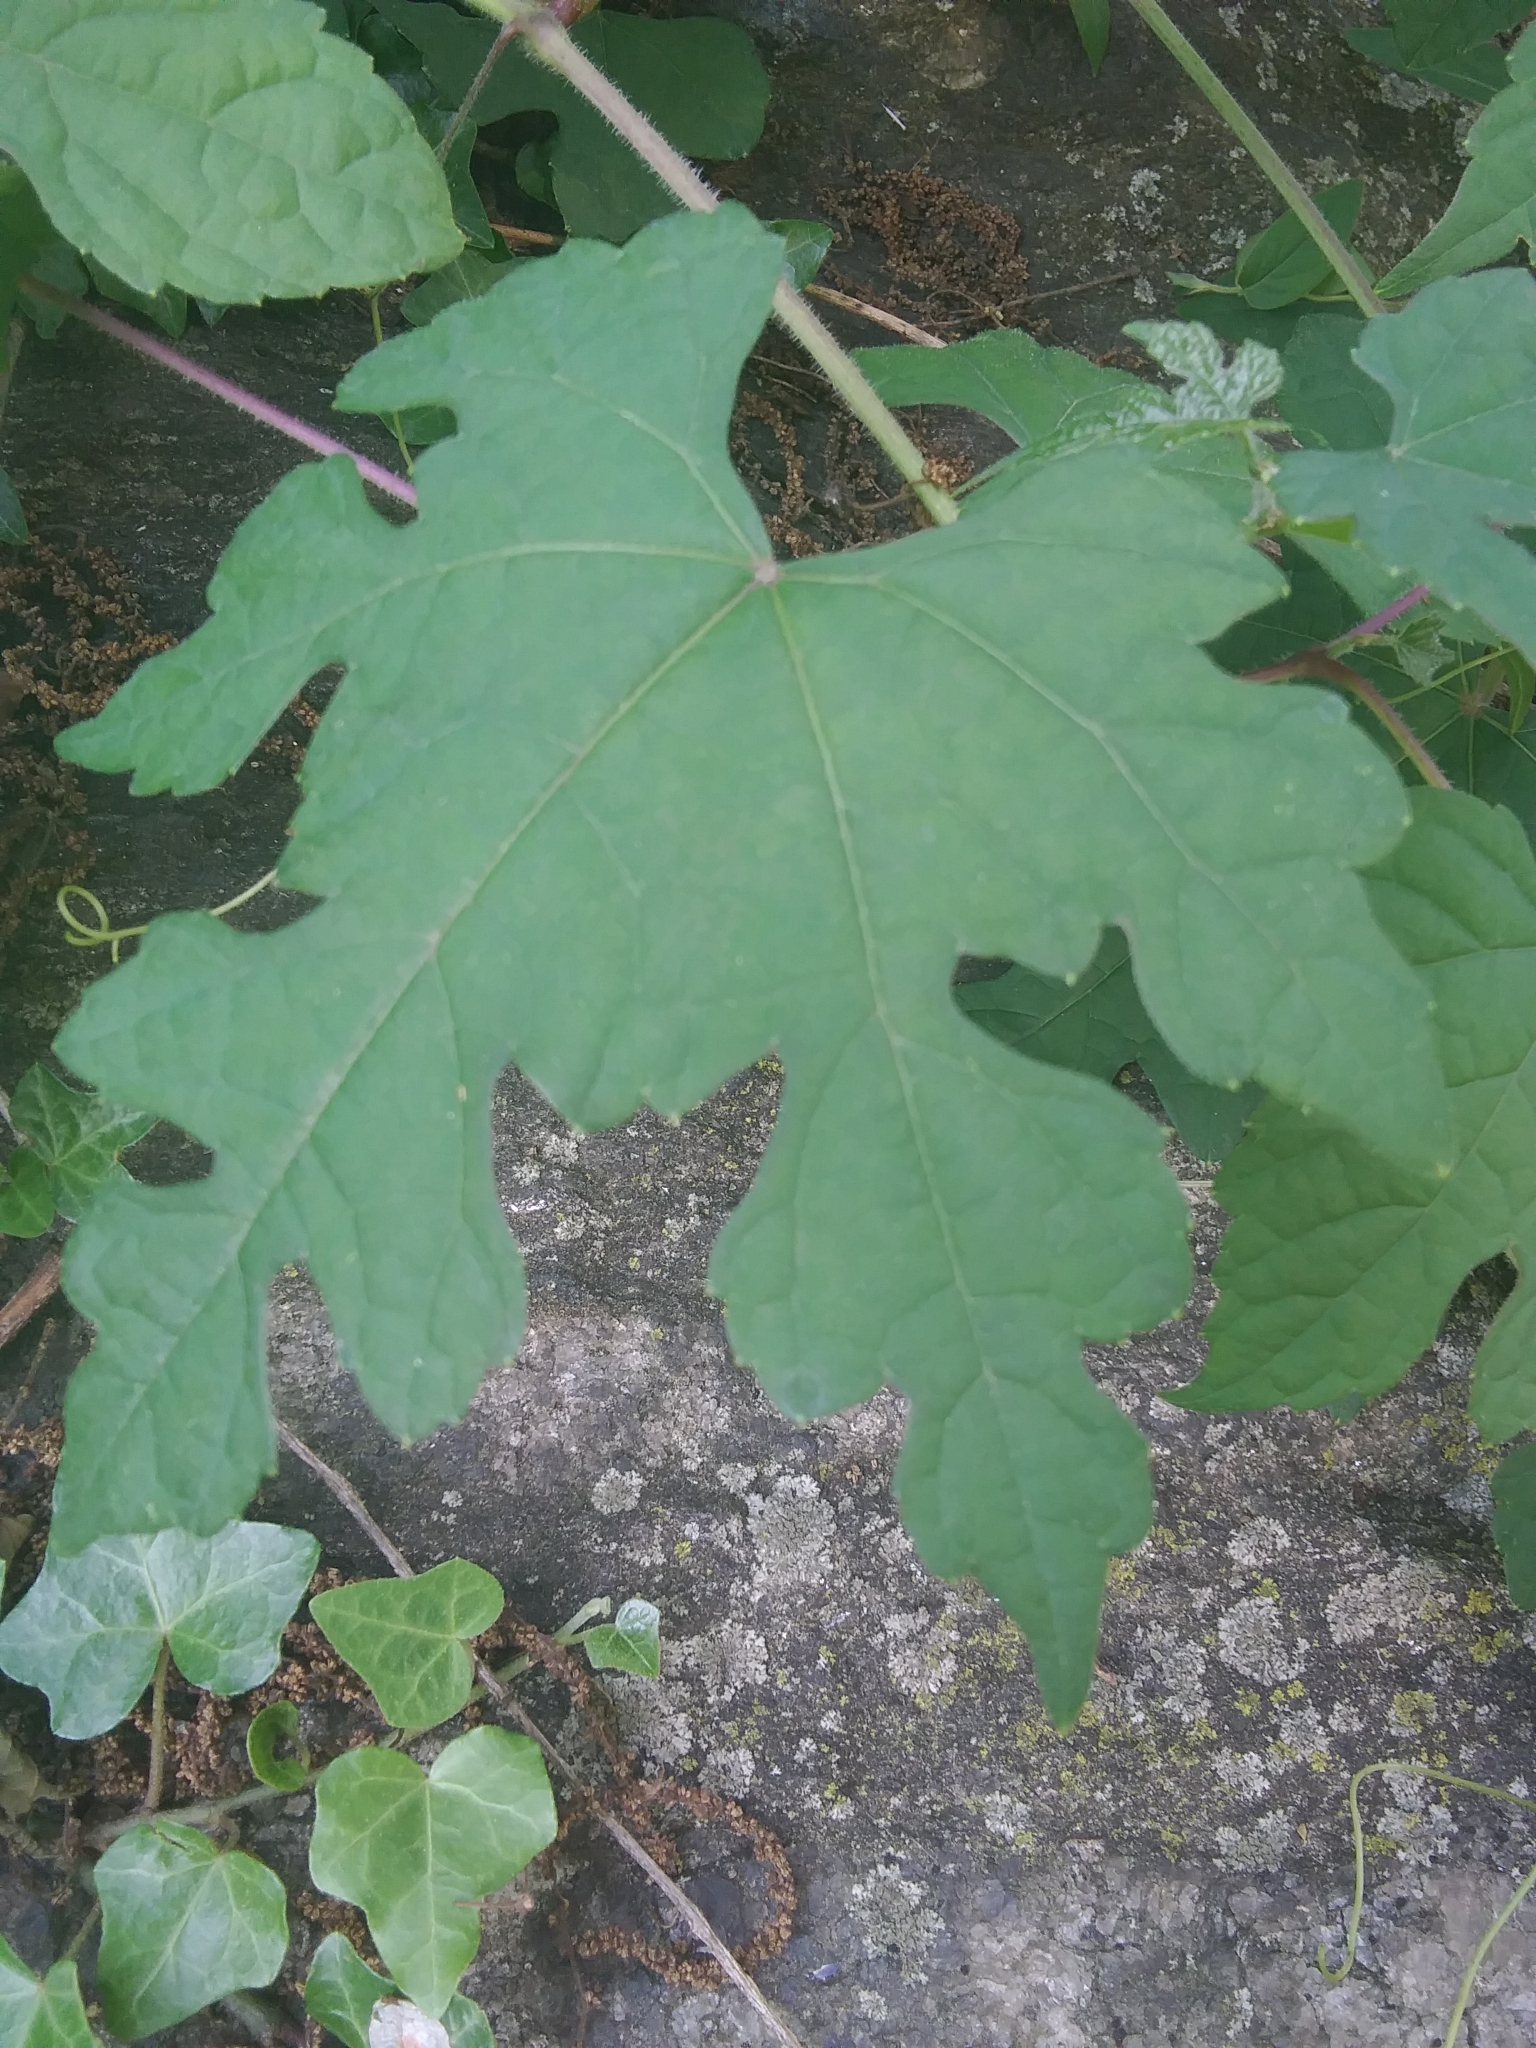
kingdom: Plantae
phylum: Tracheophyta
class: Magnoliopsida
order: Vitales
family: Vitaceae
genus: Ampelopsis
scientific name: Ampelopsis glandulosa
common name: Amur peppervine
